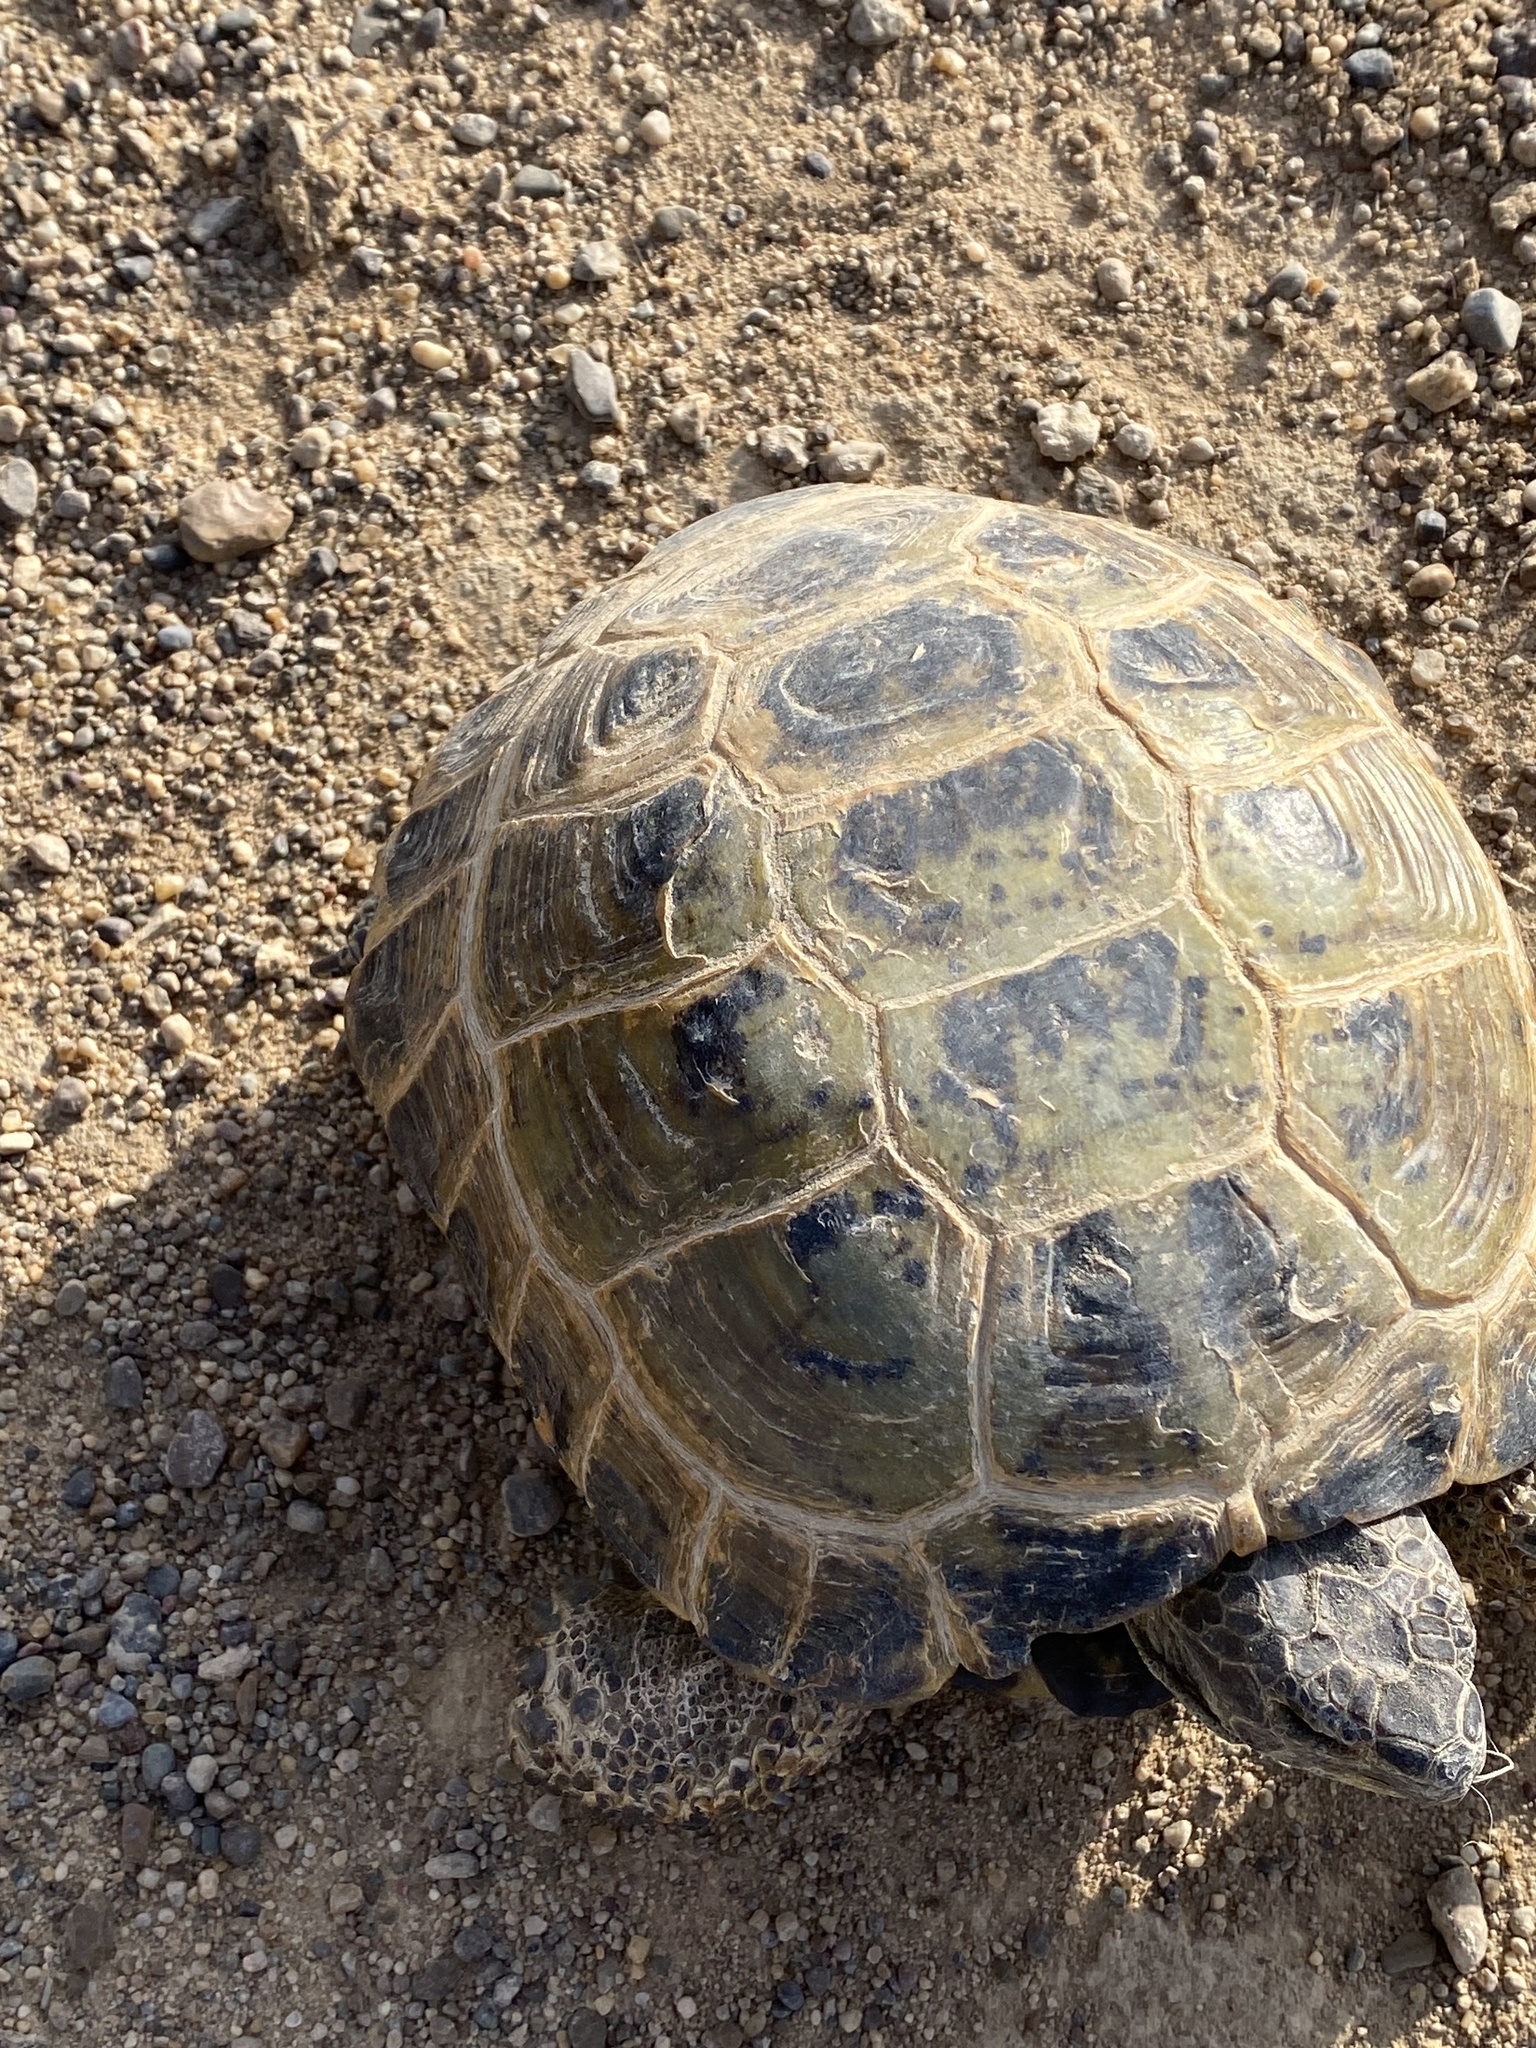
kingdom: Animalia
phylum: Chordata
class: Testudines
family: Testudinidae
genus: Testudo
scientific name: Testudo horsfieldii
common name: Central asia tortoise
